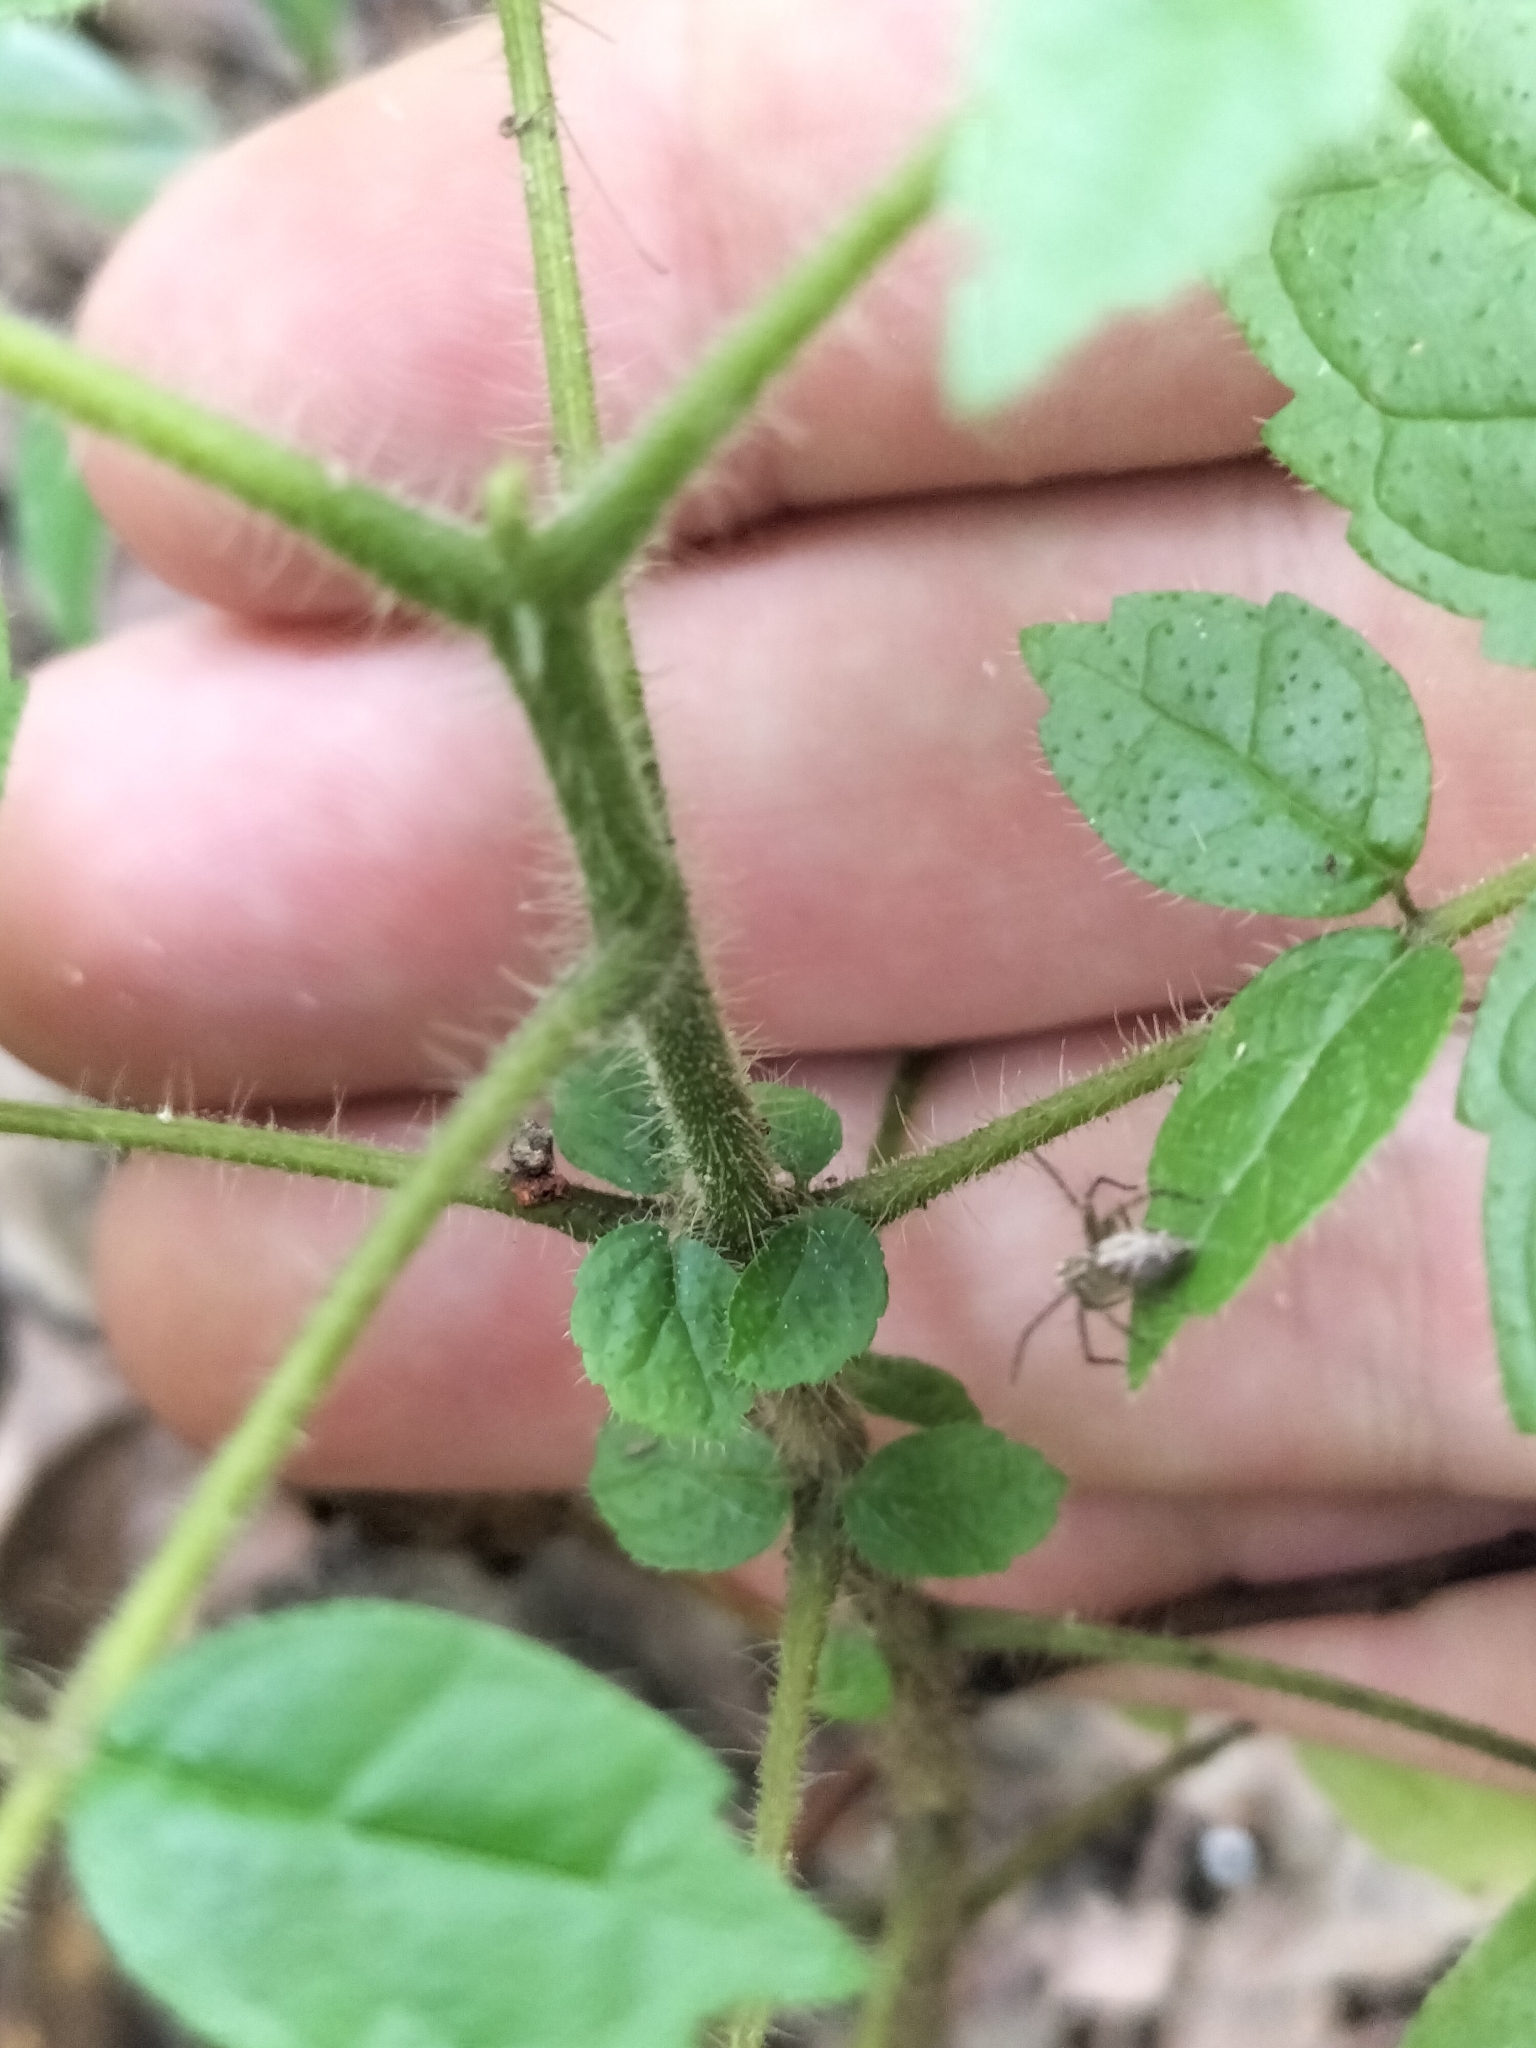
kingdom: Plantae
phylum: Tracheophyta
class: Magnoliopsida
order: Lamiales
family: Bignoniaceae
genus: Spathodea
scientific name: Spathodea campanulata
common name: African tuliptree
